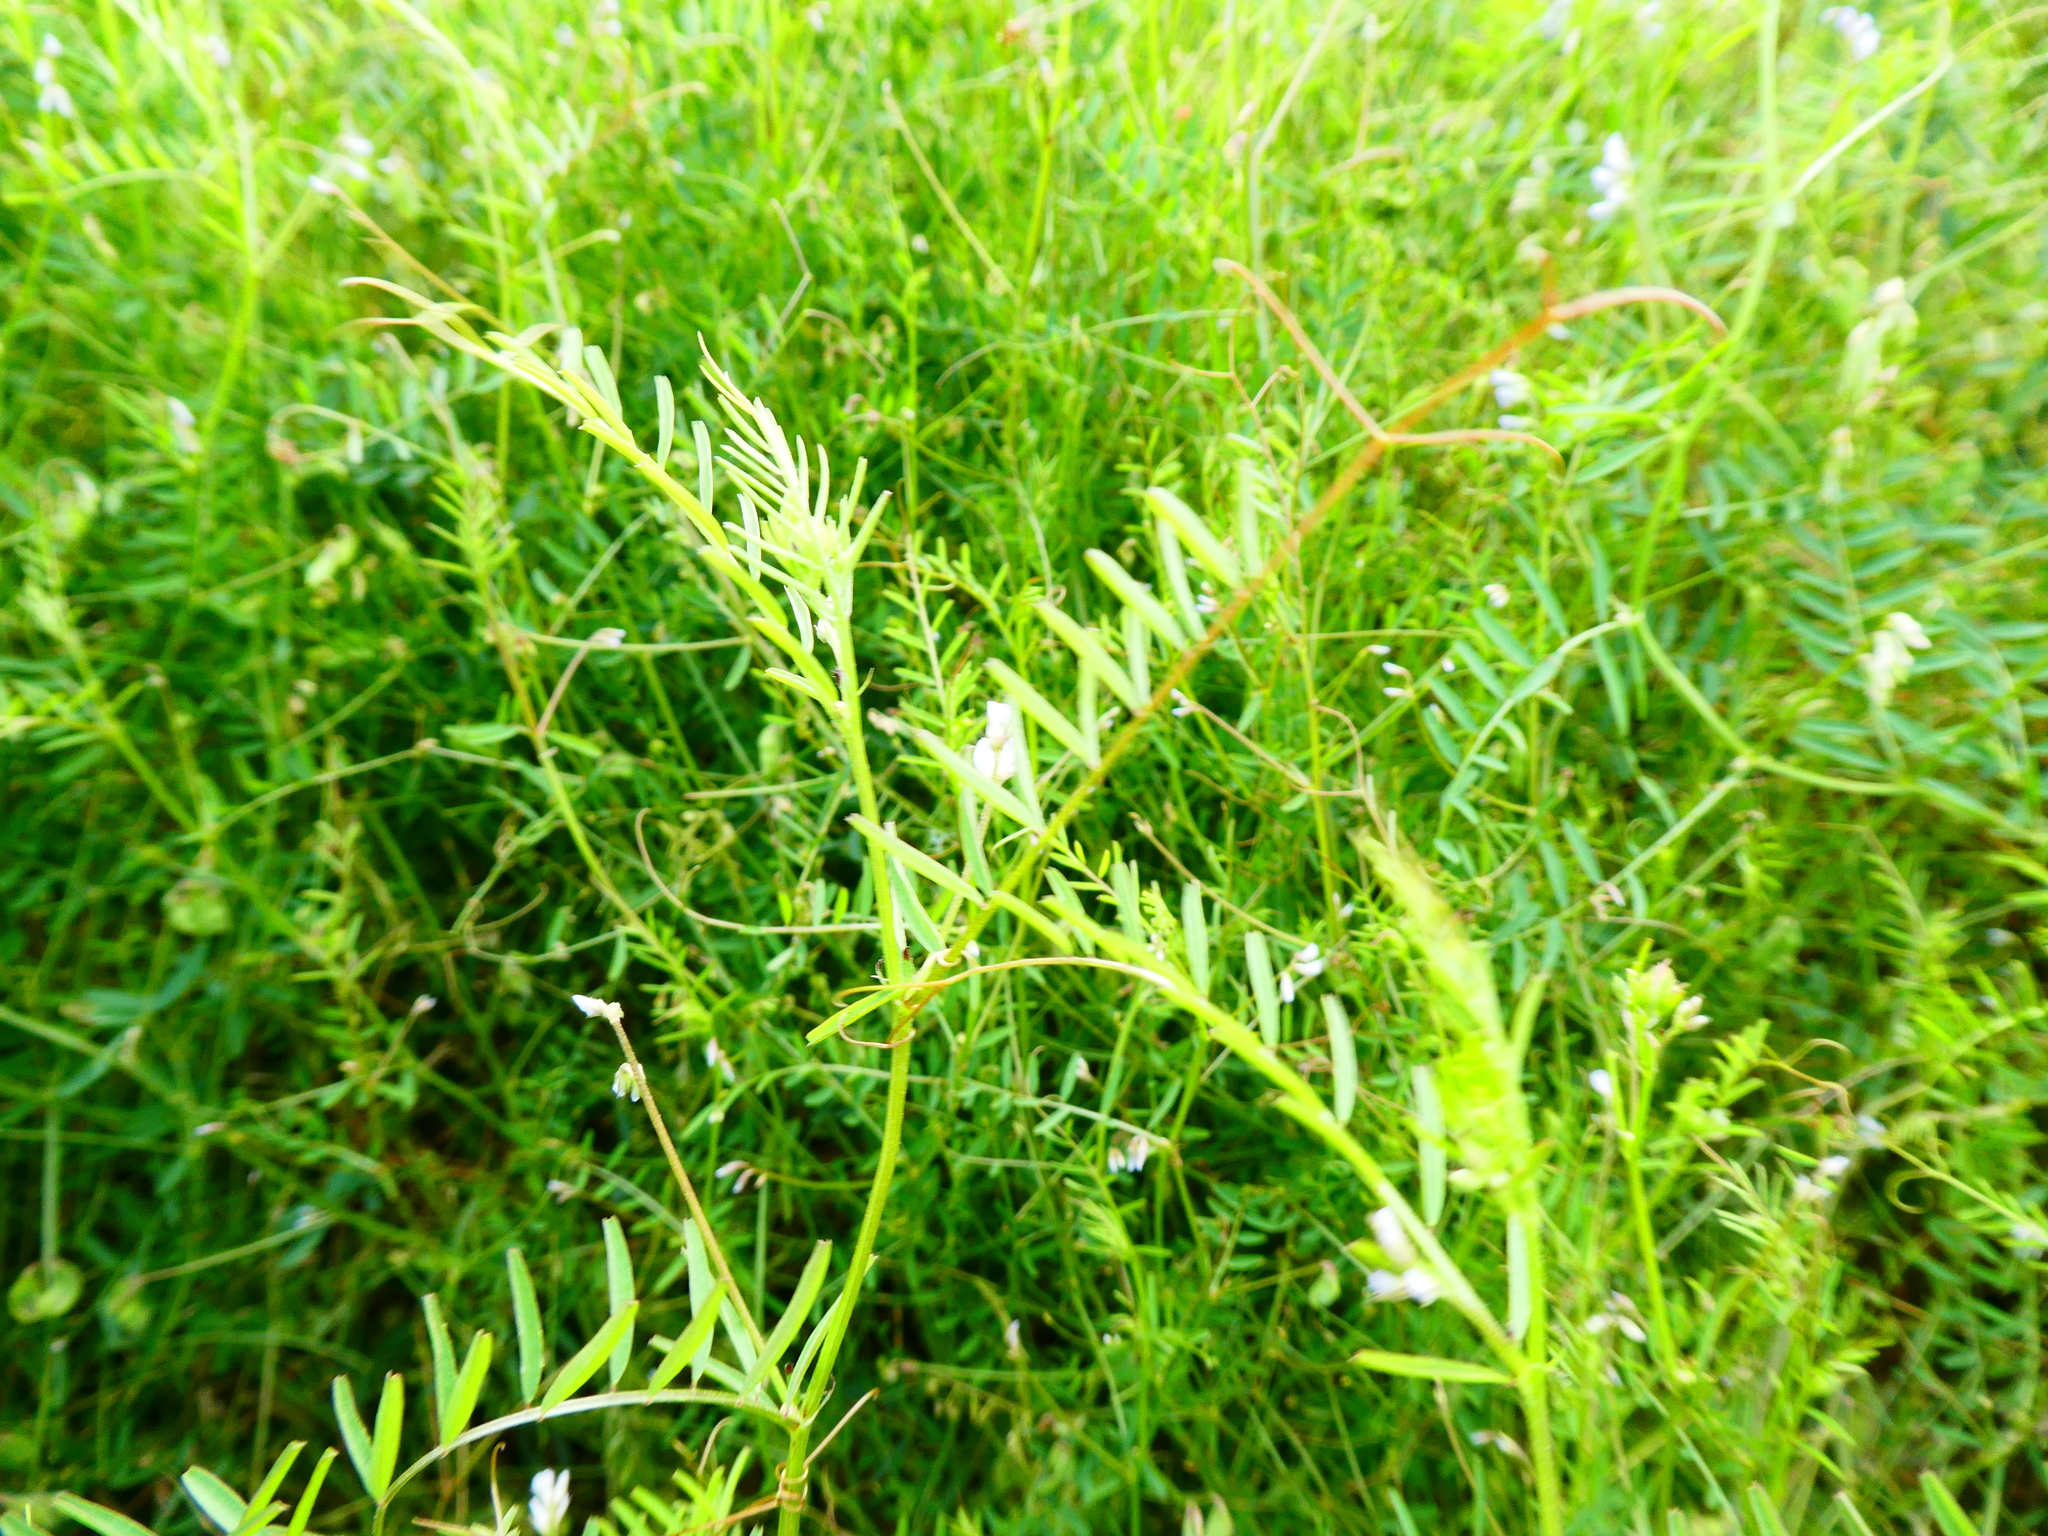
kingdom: Plantae
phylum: Tracheophyta
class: Magnoliopsida
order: Fabales
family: Fabaceae
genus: Vicia
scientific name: Vicia hirsuta
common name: Tiny vetch
